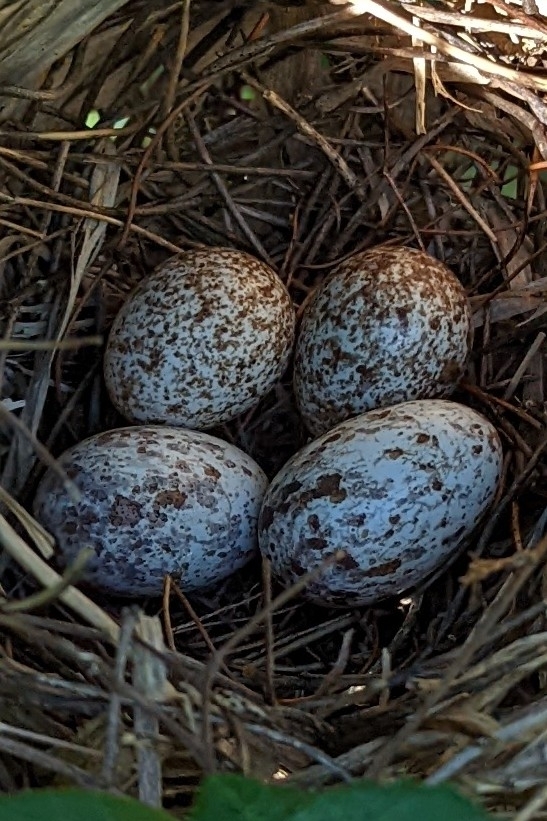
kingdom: Animalia
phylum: Chordata
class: Aves
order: Passeriformes
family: Cardinalidae
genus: Cardinalis
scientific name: Cardinalis cardinalis
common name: Northern cardinal
